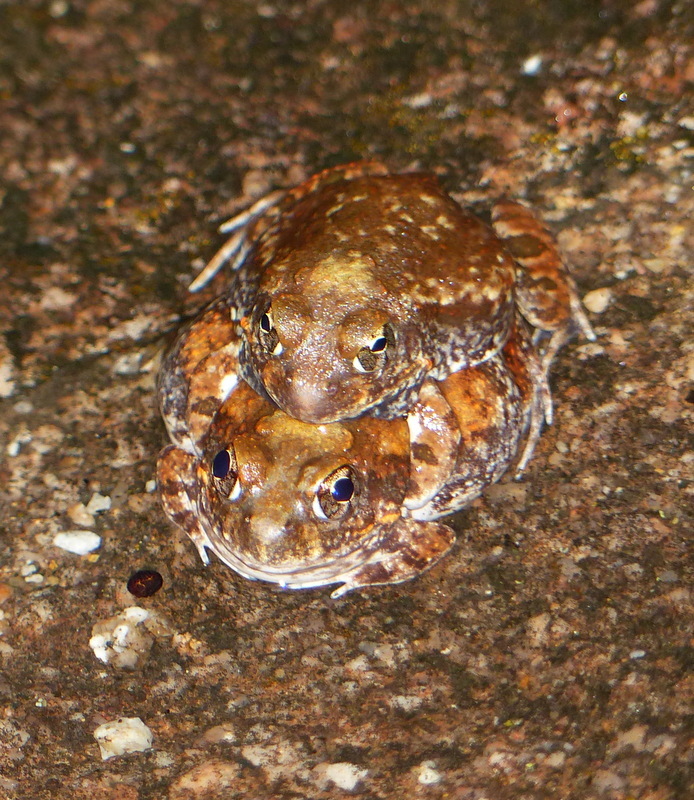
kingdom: Animalia
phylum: Chordata
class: Amphibia
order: Anura
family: Pyxicephalidae
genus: Tomopterna
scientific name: Tomopterna marmorata
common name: Russet-backed sand frog
